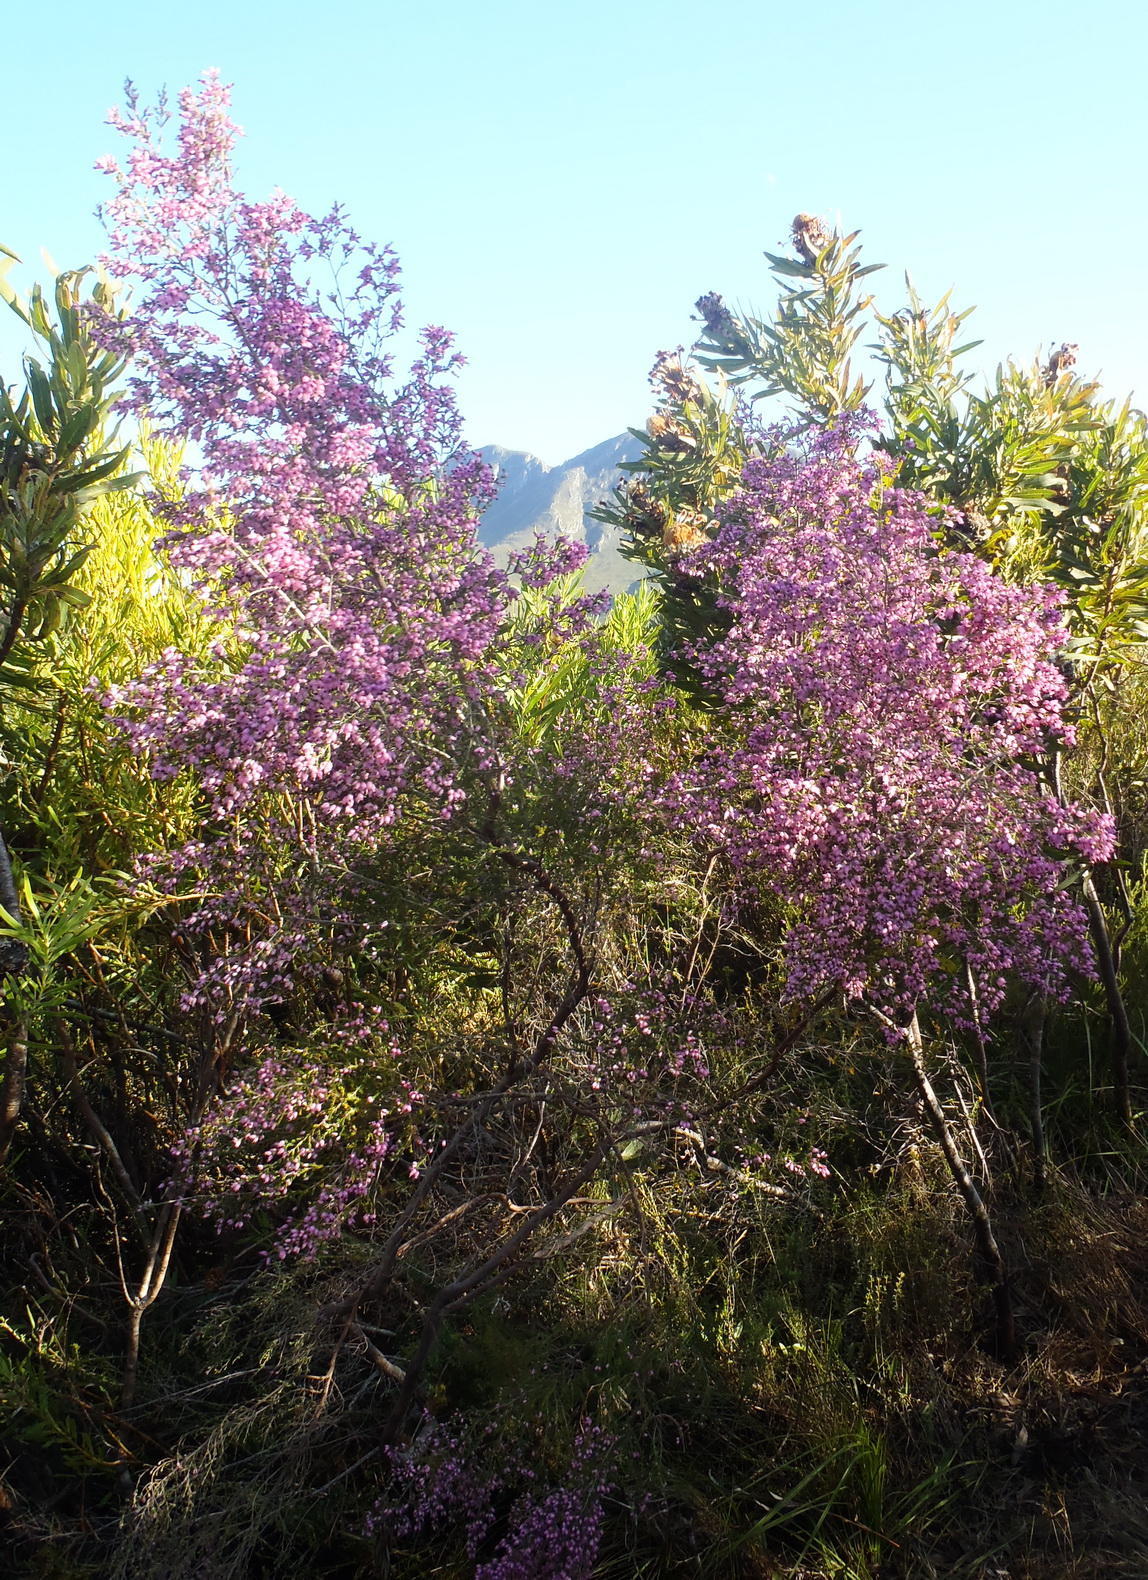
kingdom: Plantae
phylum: Tracheophyta
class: Magnoliopsida
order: Ericales
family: Ericaceae
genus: Erica
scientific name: Erica nutans
